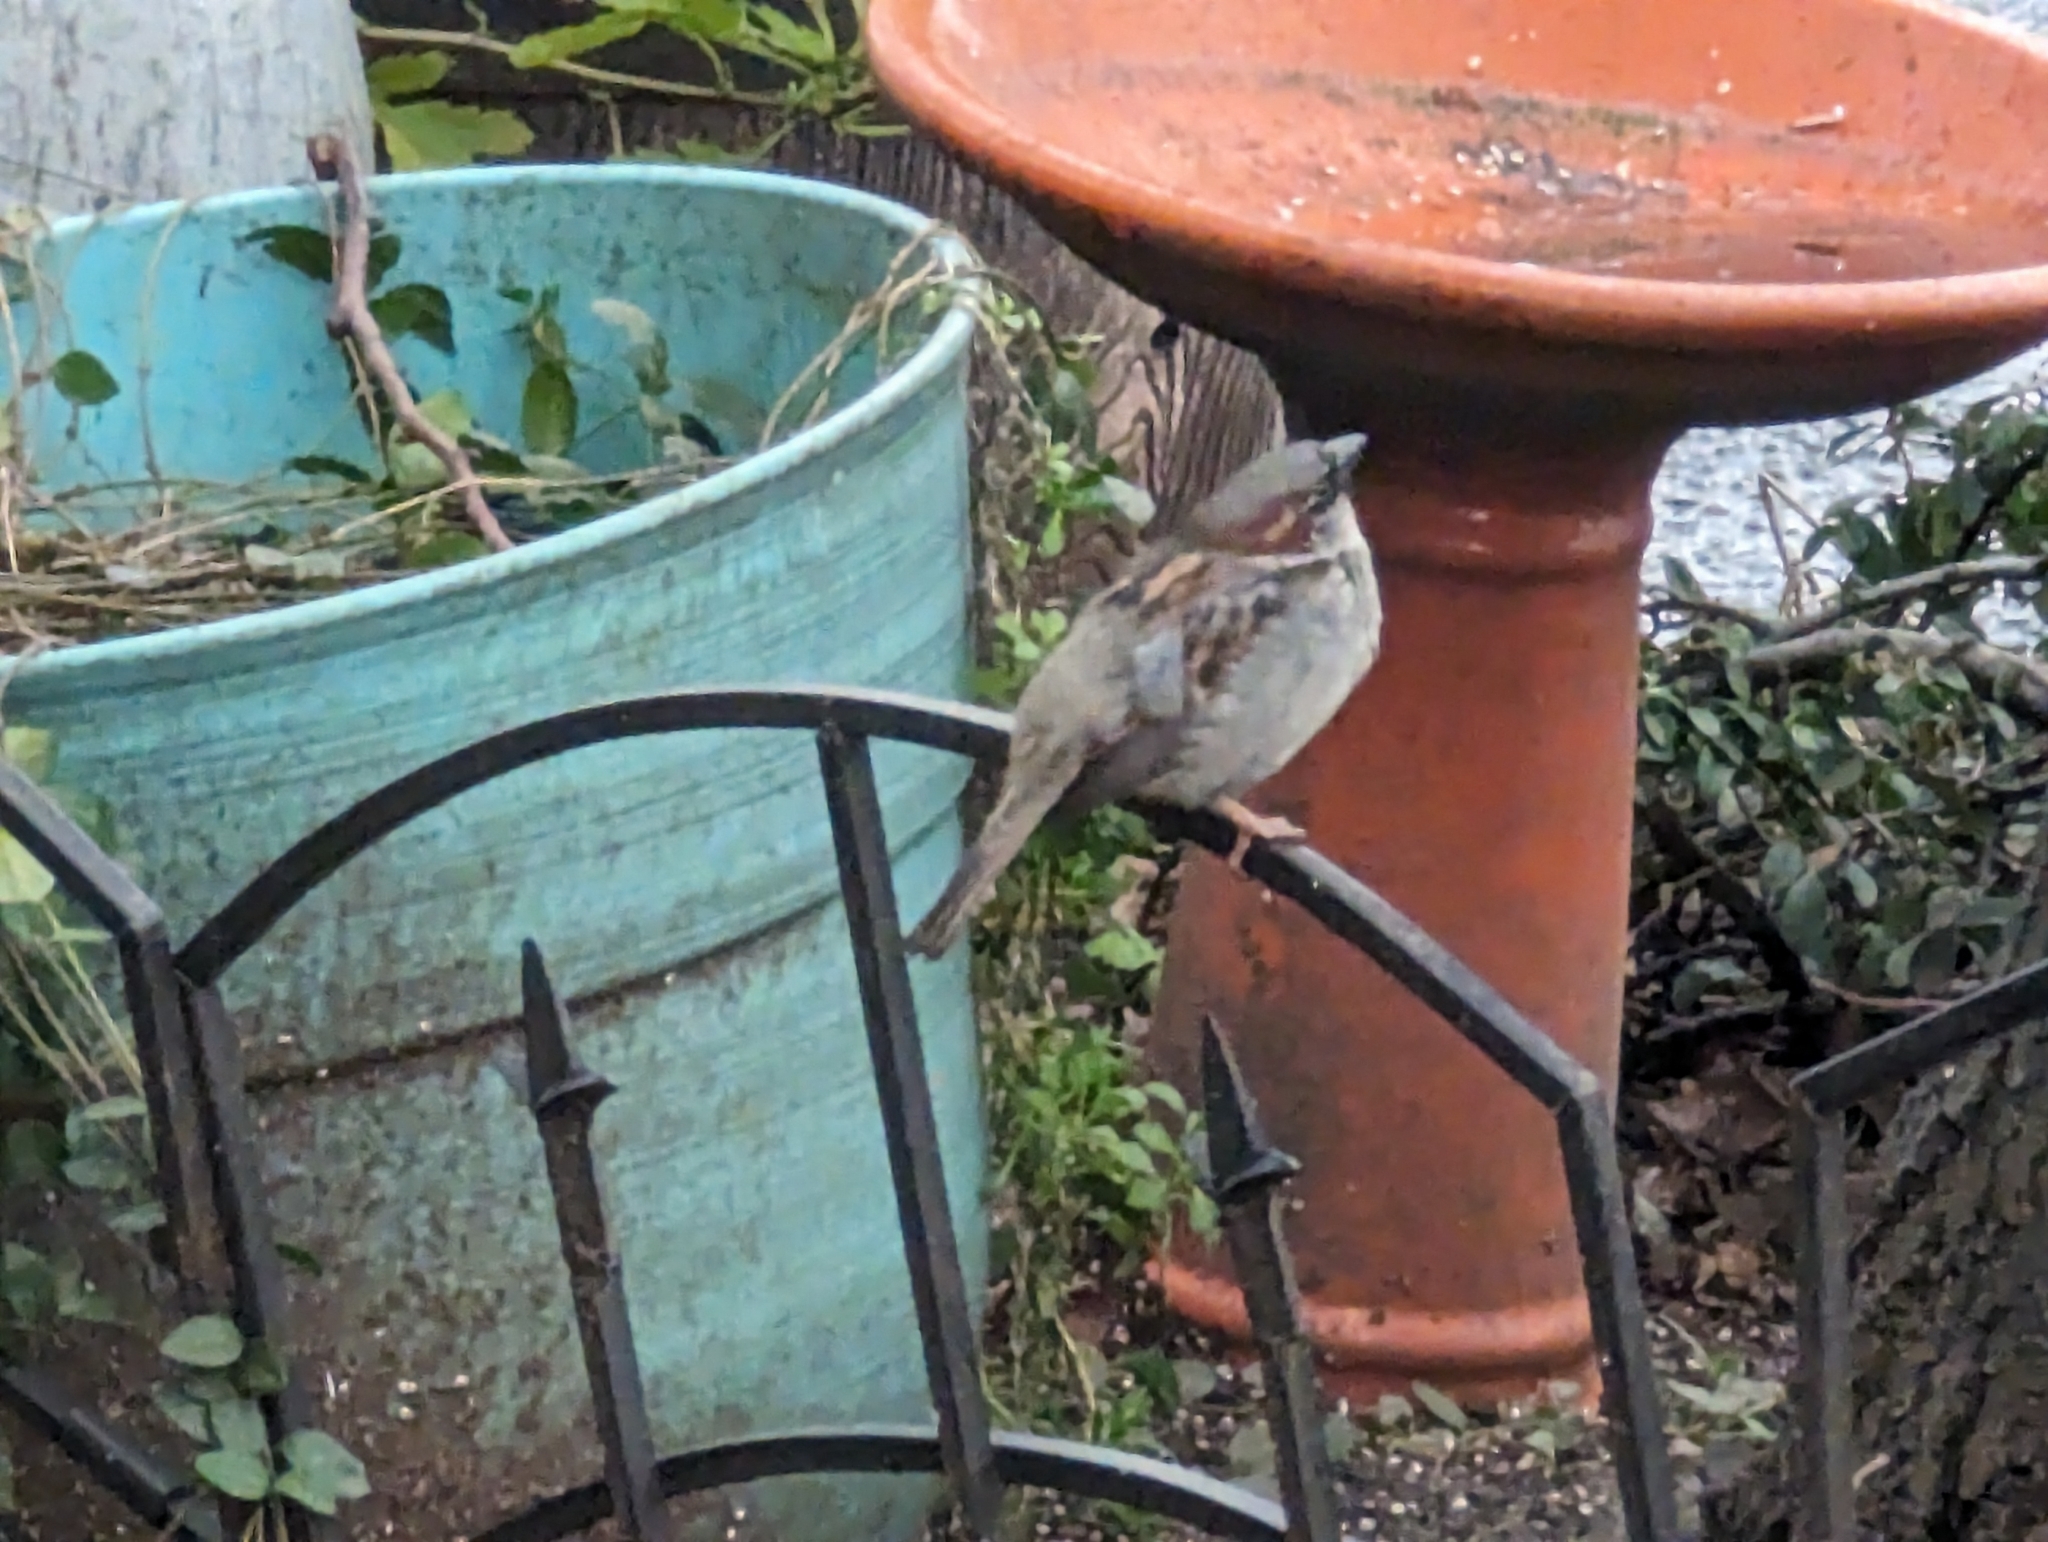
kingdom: Animalia
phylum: Chordata
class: Aves
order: Passeriformes
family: Passeridae
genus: Passer
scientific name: Passer domesticus
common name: House sparrow
